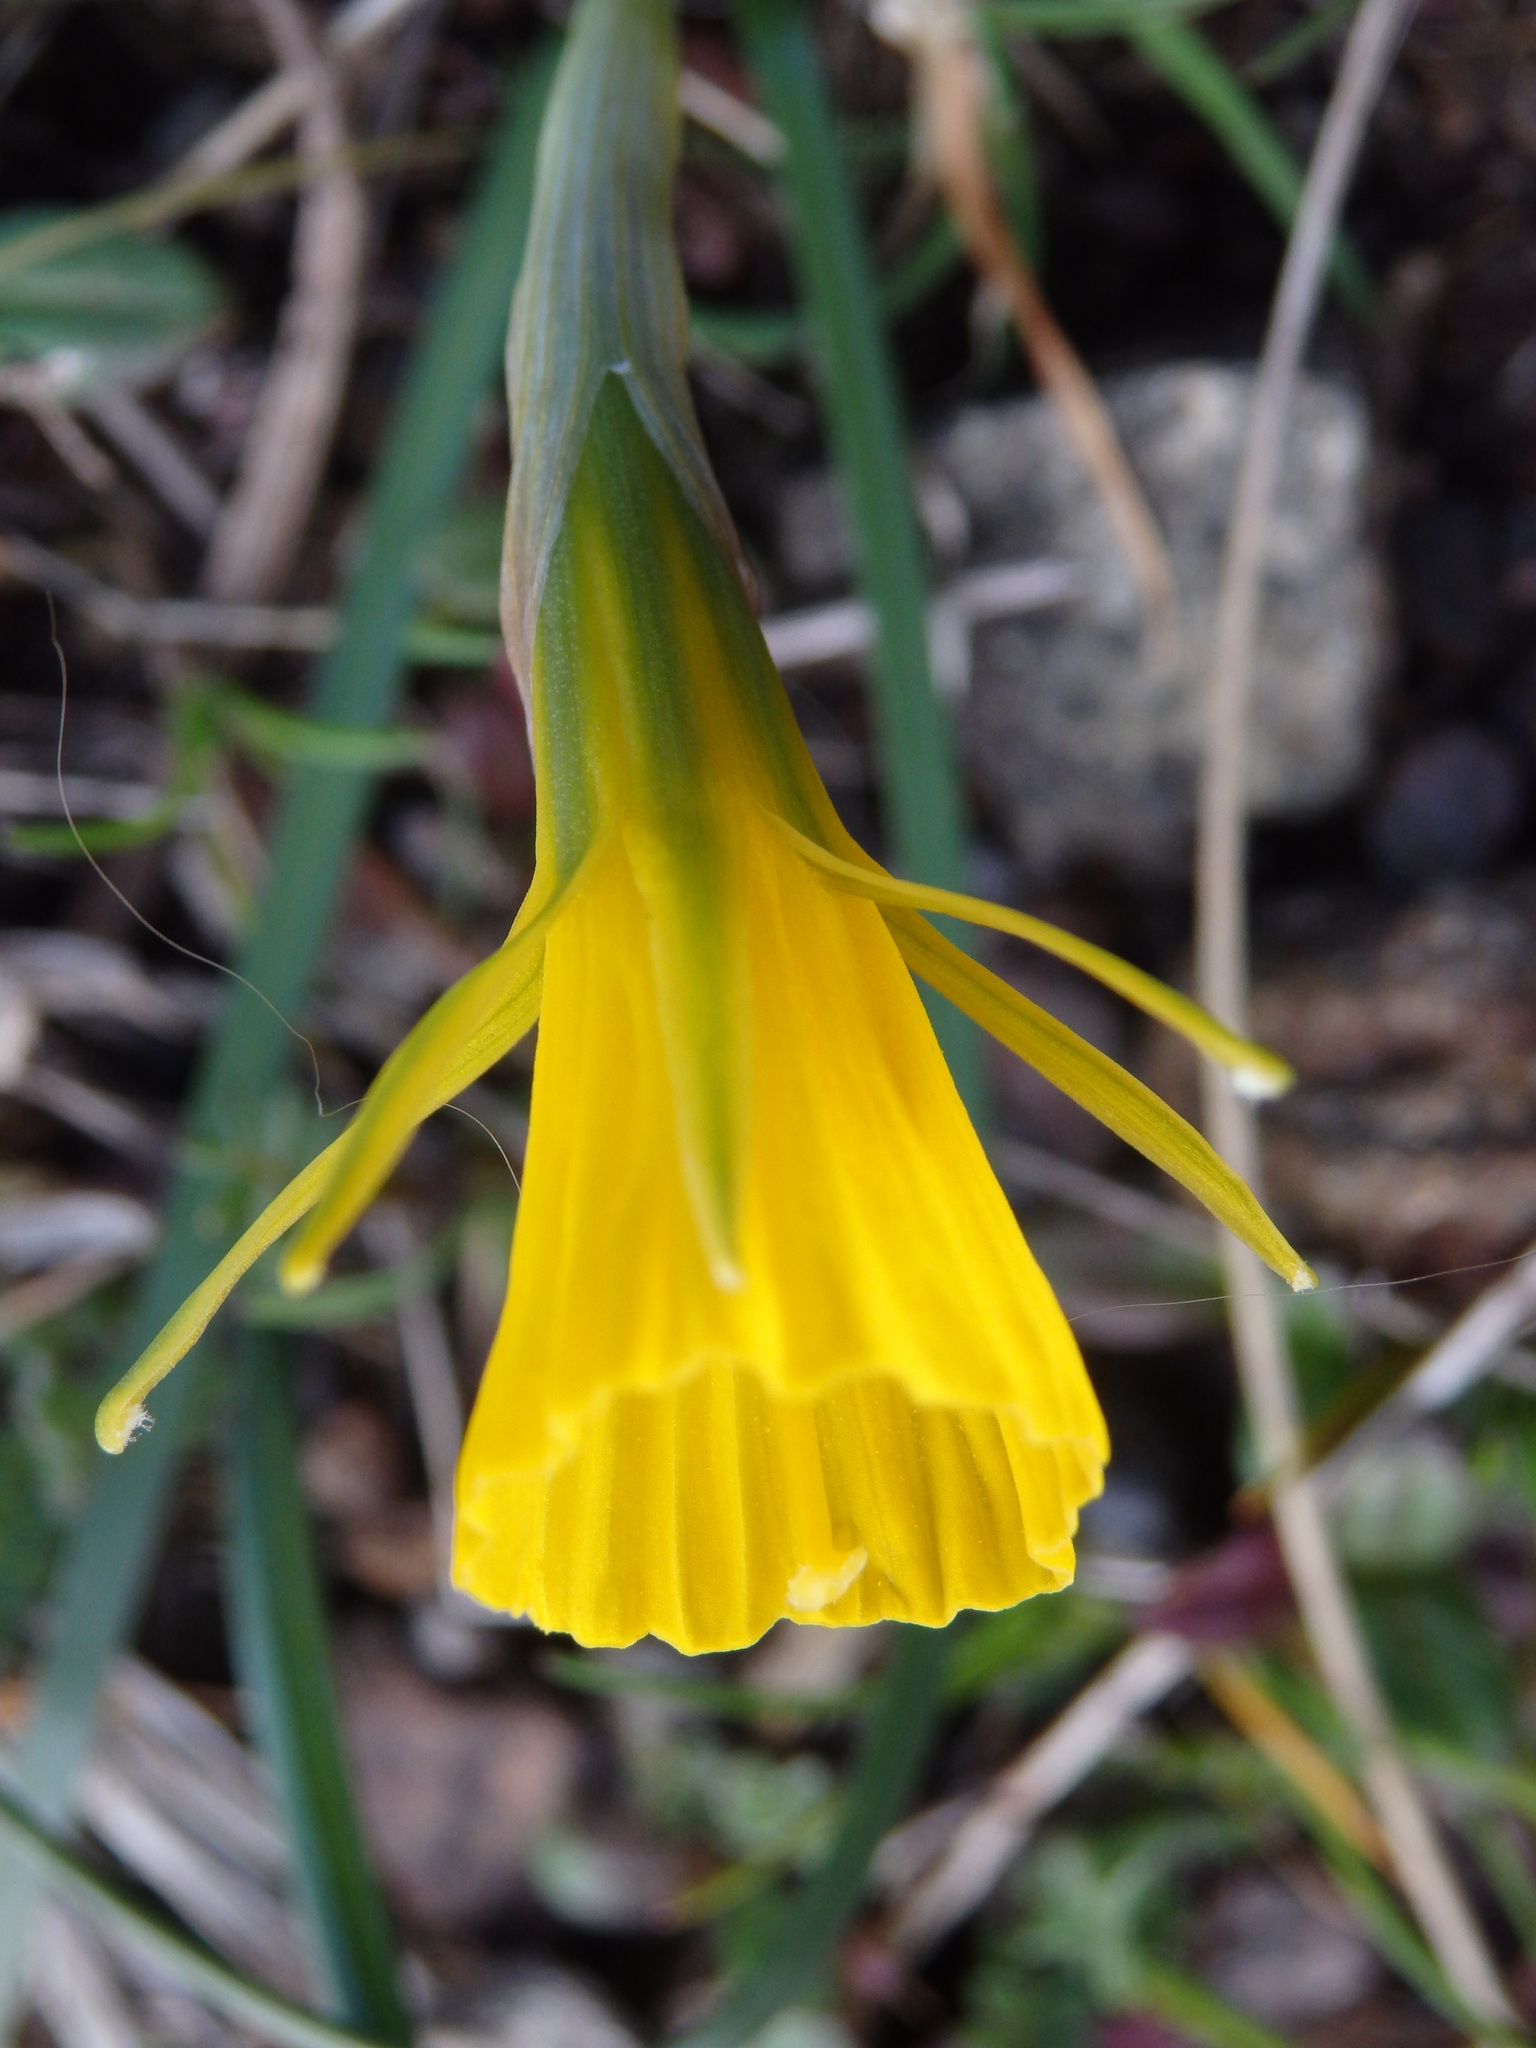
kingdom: Plantae
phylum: Tracheophyta
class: Liliopsida
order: Asparagales
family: Amaryllidaceae
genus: Narcissus
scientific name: Narcissus bulbocodium
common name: Hoop-petticoat daffodil
